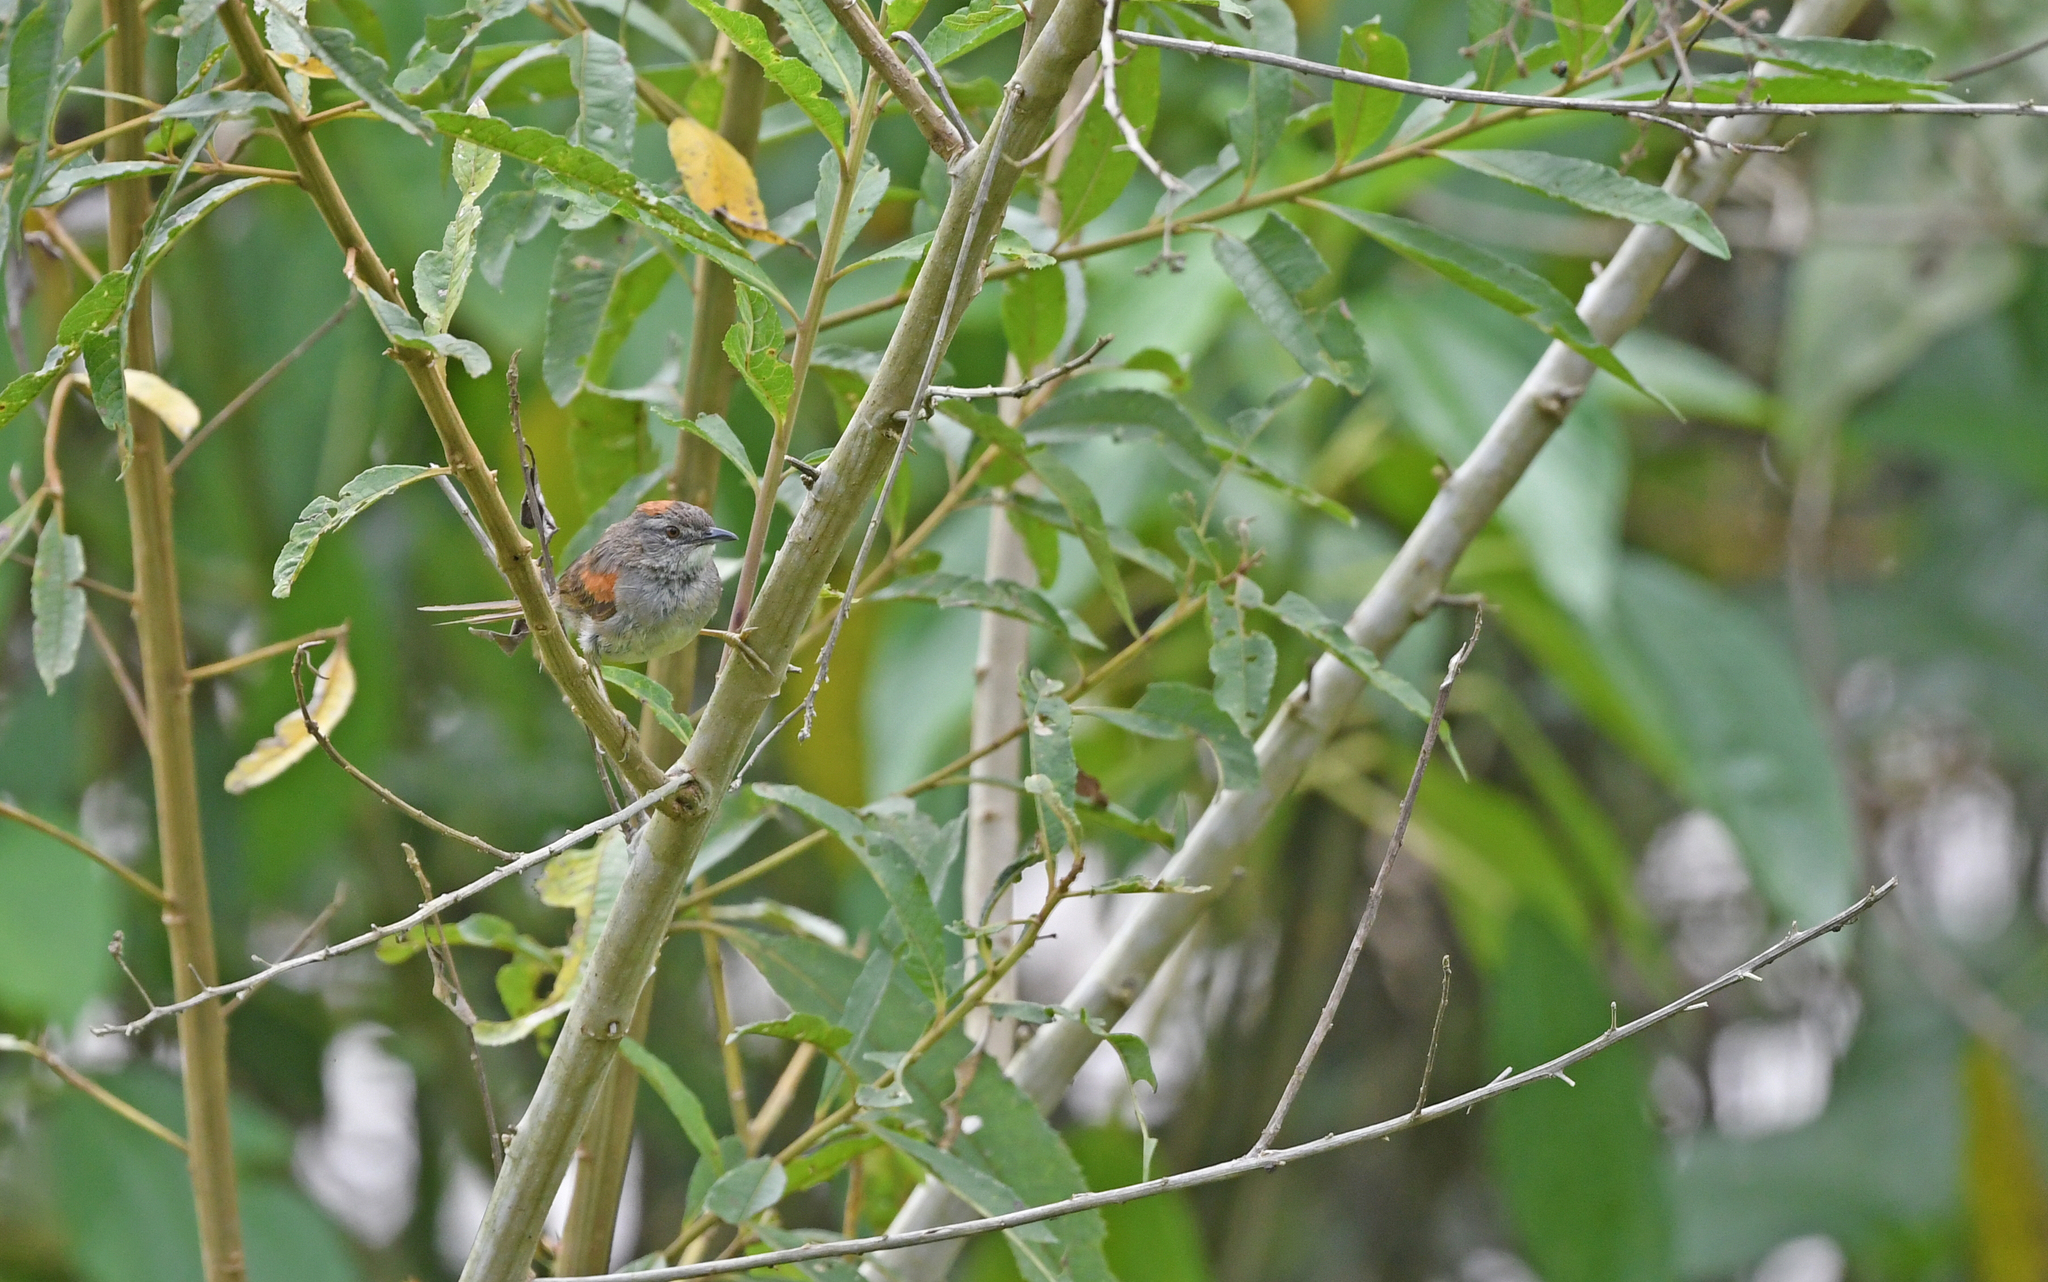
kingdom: Animalia
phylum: Chordata
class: Aves
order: Passeriformes
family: Furnariidae
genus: Synallaxis
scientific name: Synallaxis albescens
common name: Pale-breasted spinetail
